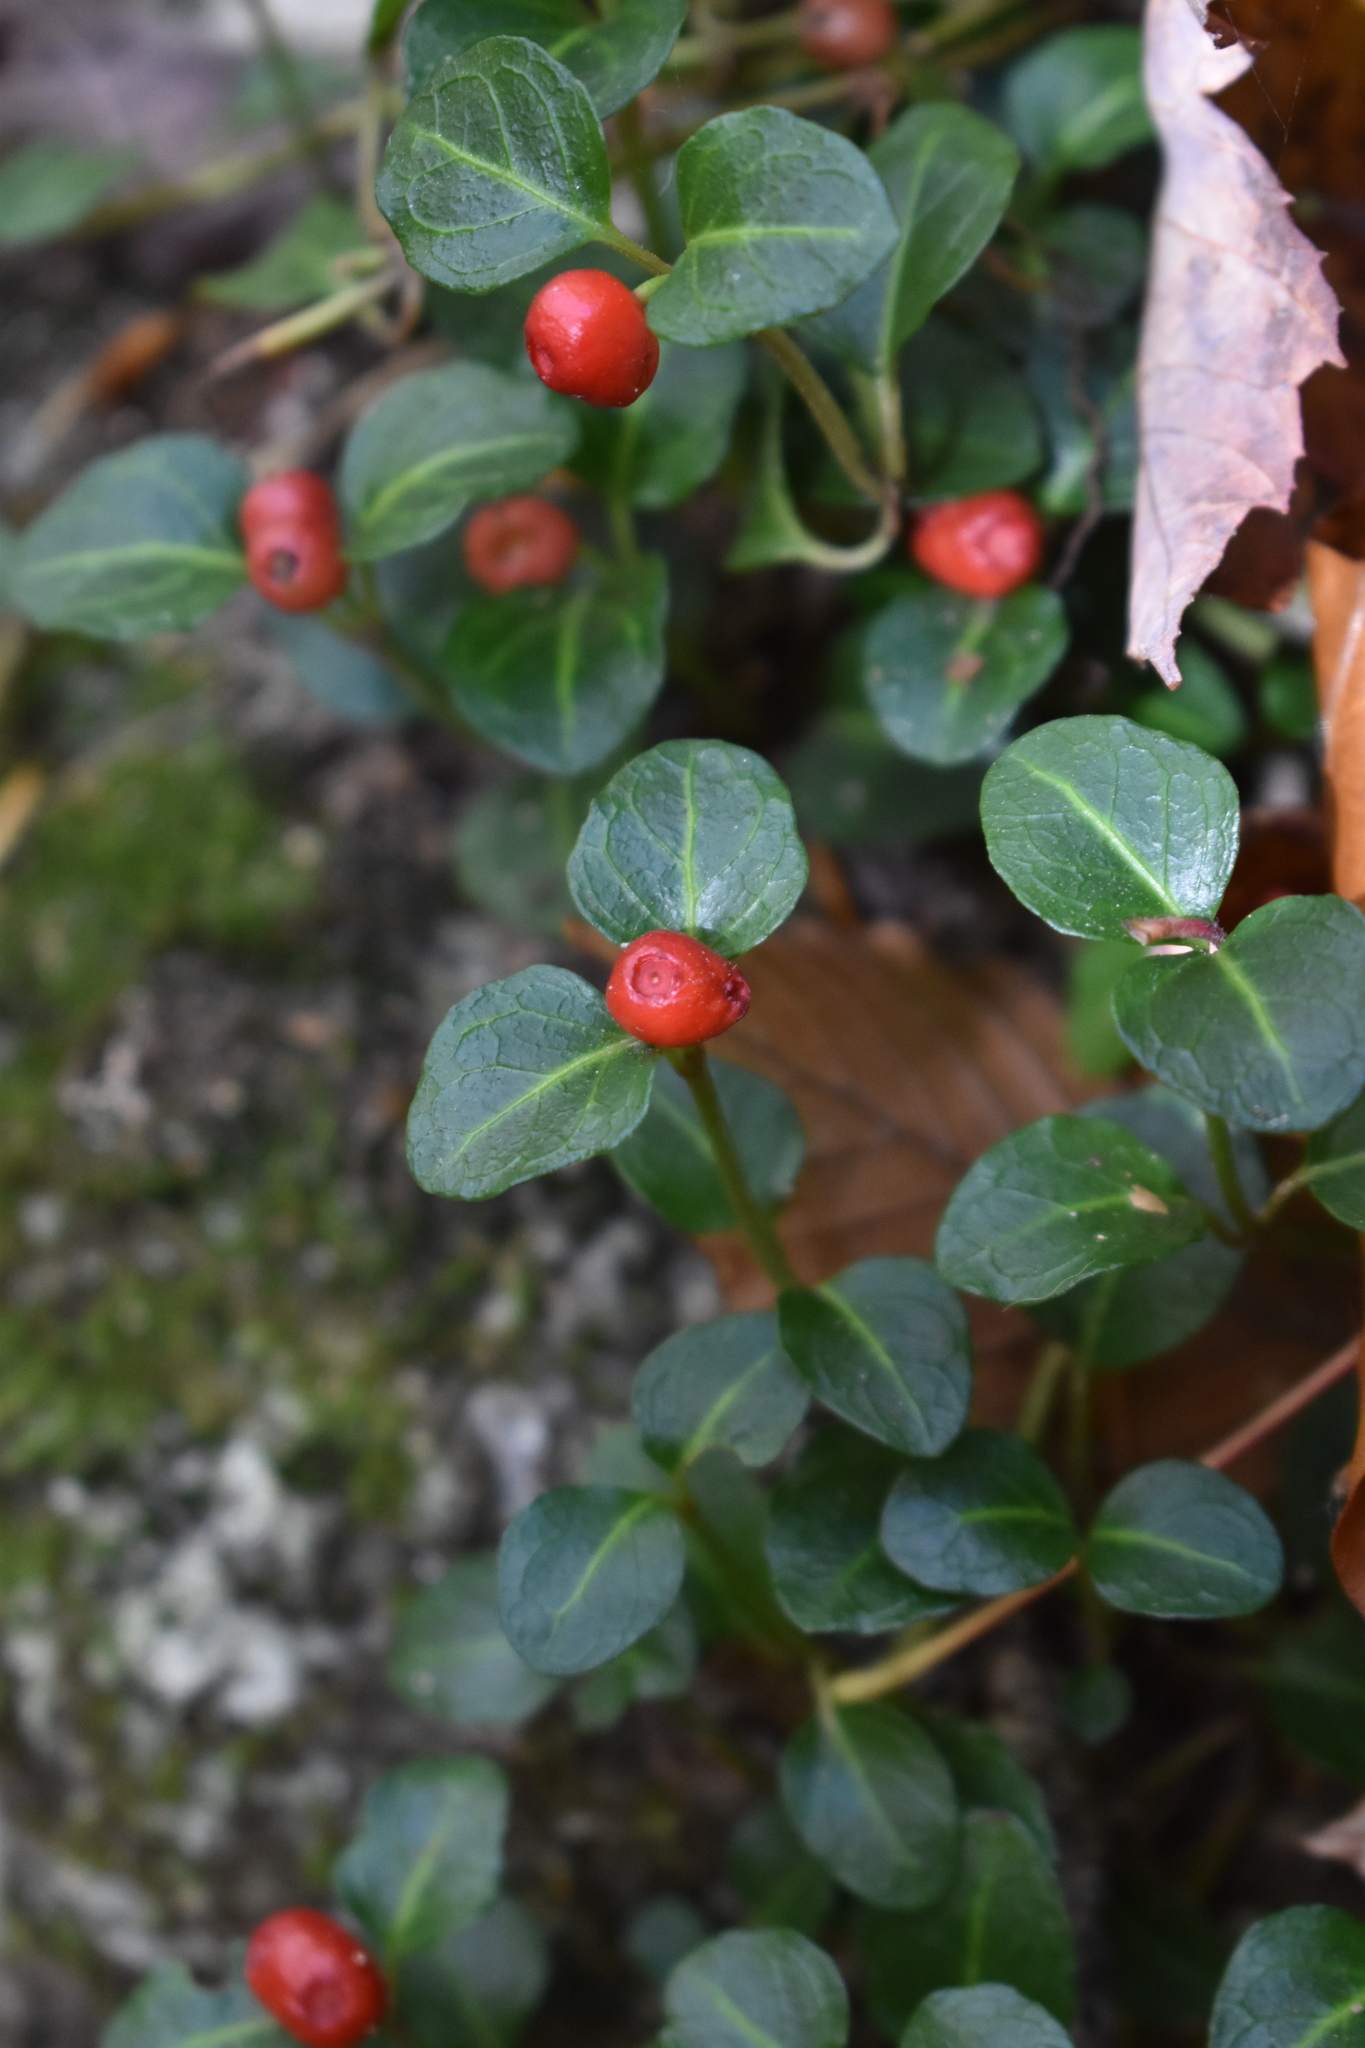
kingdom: Plantae
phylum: Tracheophyta
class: Magnoliopsida
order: Gentianales
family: Rubiaceae
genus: Mitchella
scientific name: Mitchella repens
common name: Partridge-berry
